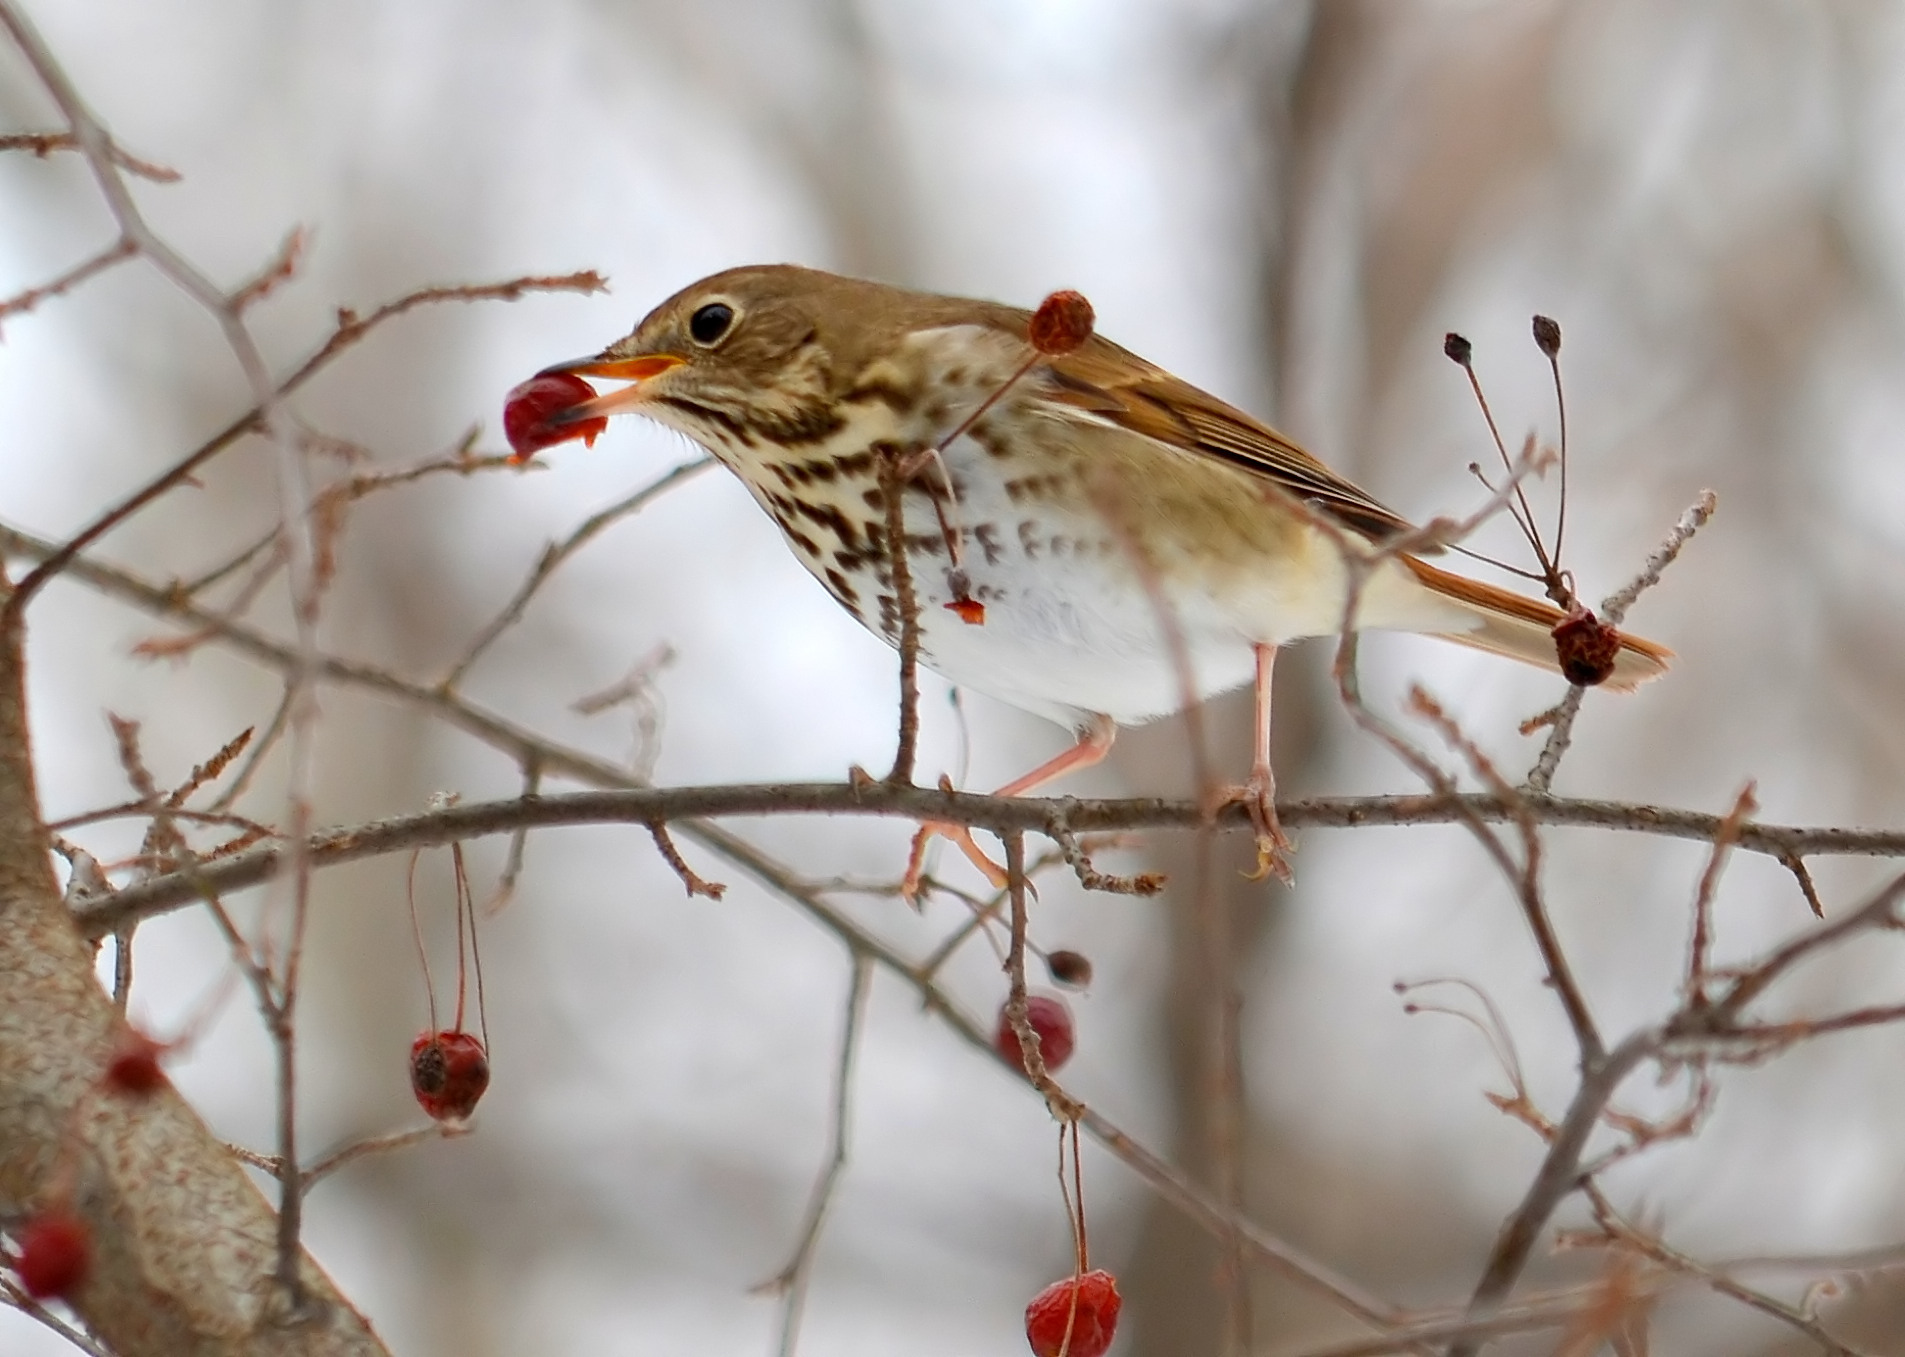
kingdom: Animalia
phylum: Chordata
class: Aves
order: Passeriformes
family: Turdidae
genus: Catharus
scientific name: Catharus guttatus
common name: Hermit thrush
